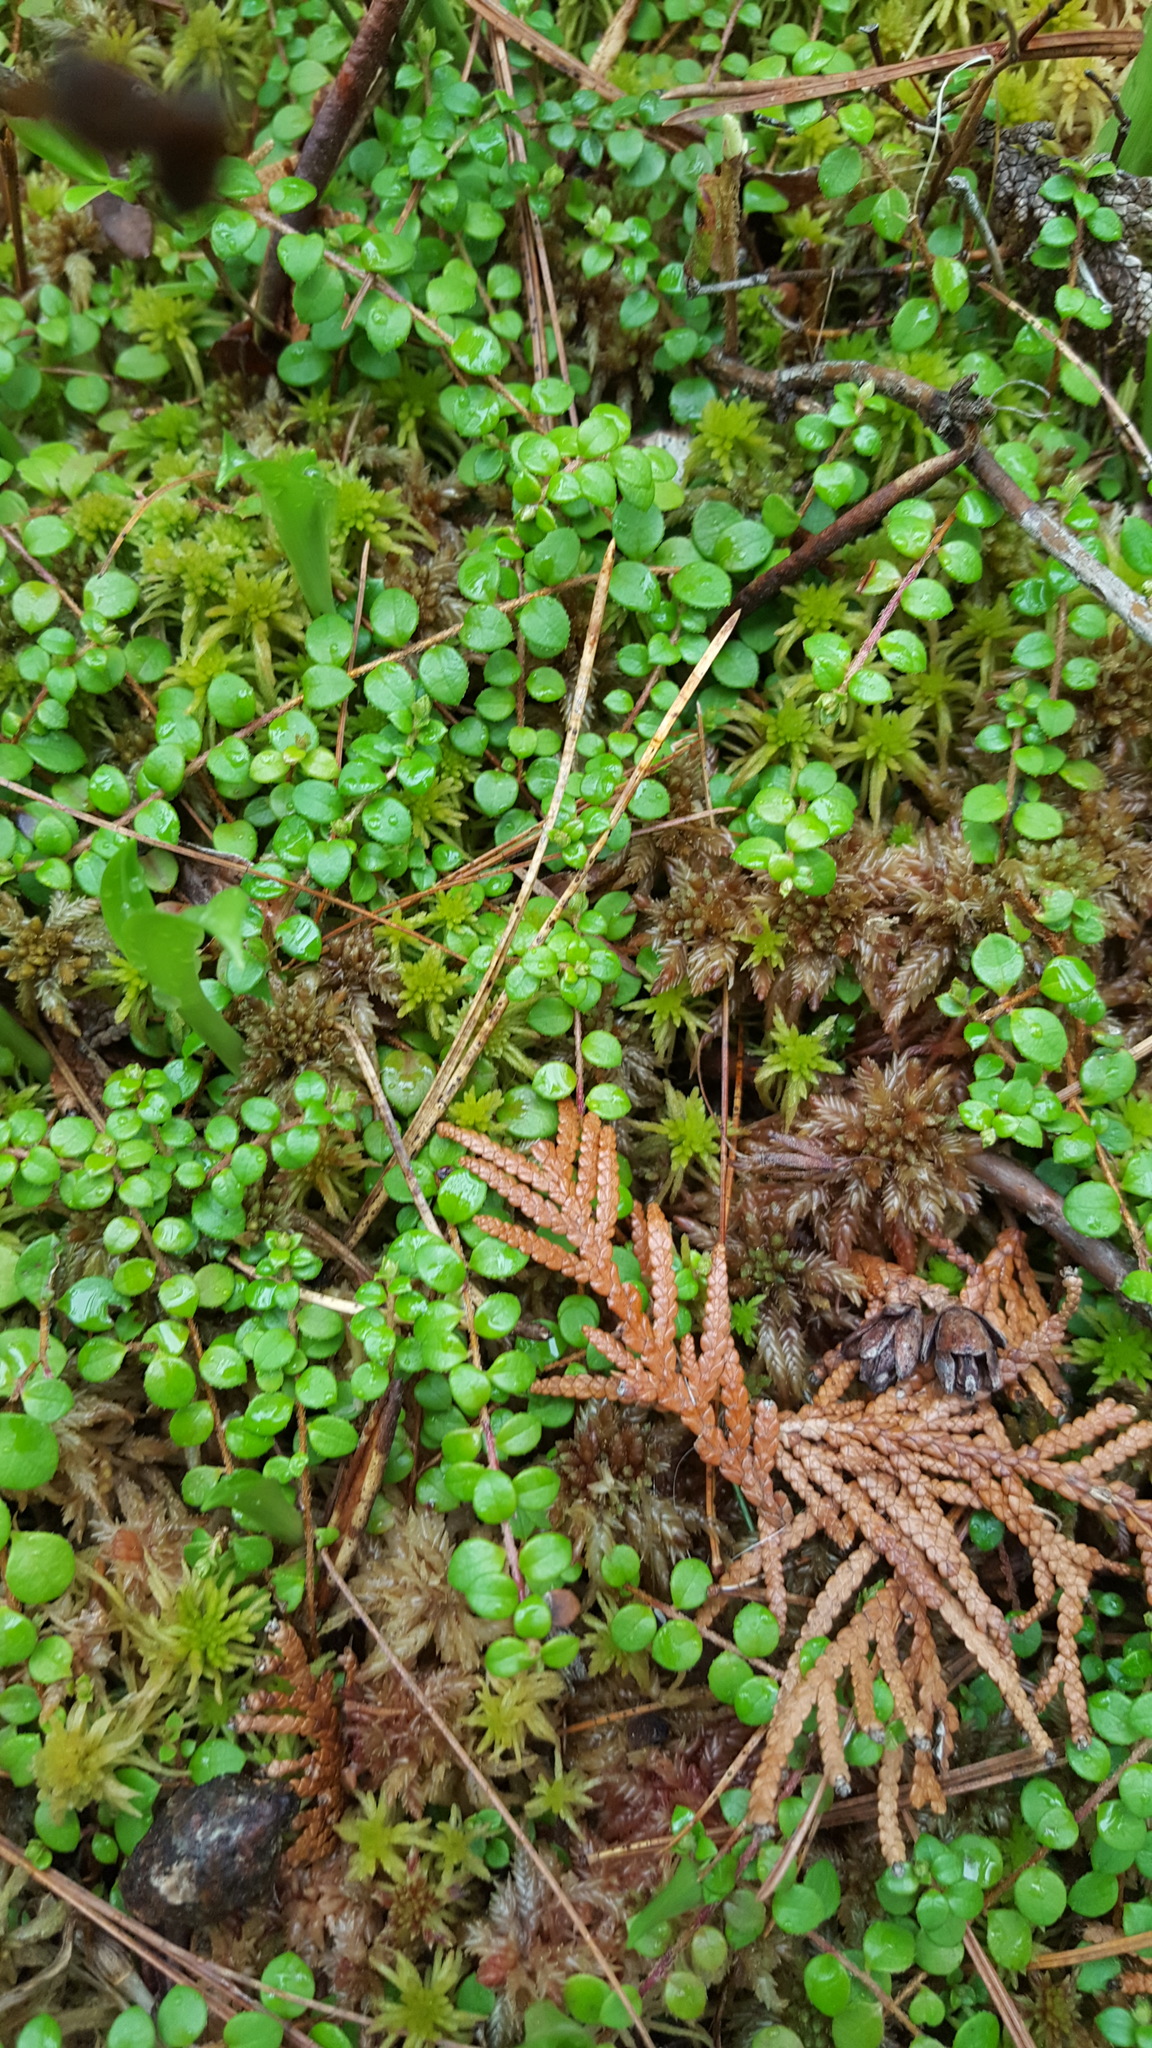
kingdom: Plantae
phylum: Tracheophyta
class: Magnoliopsida
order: Ericales
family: Ericaceae
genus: Gaultheria
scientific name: Gaultheria hispidula
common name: Cancer wintergreen
